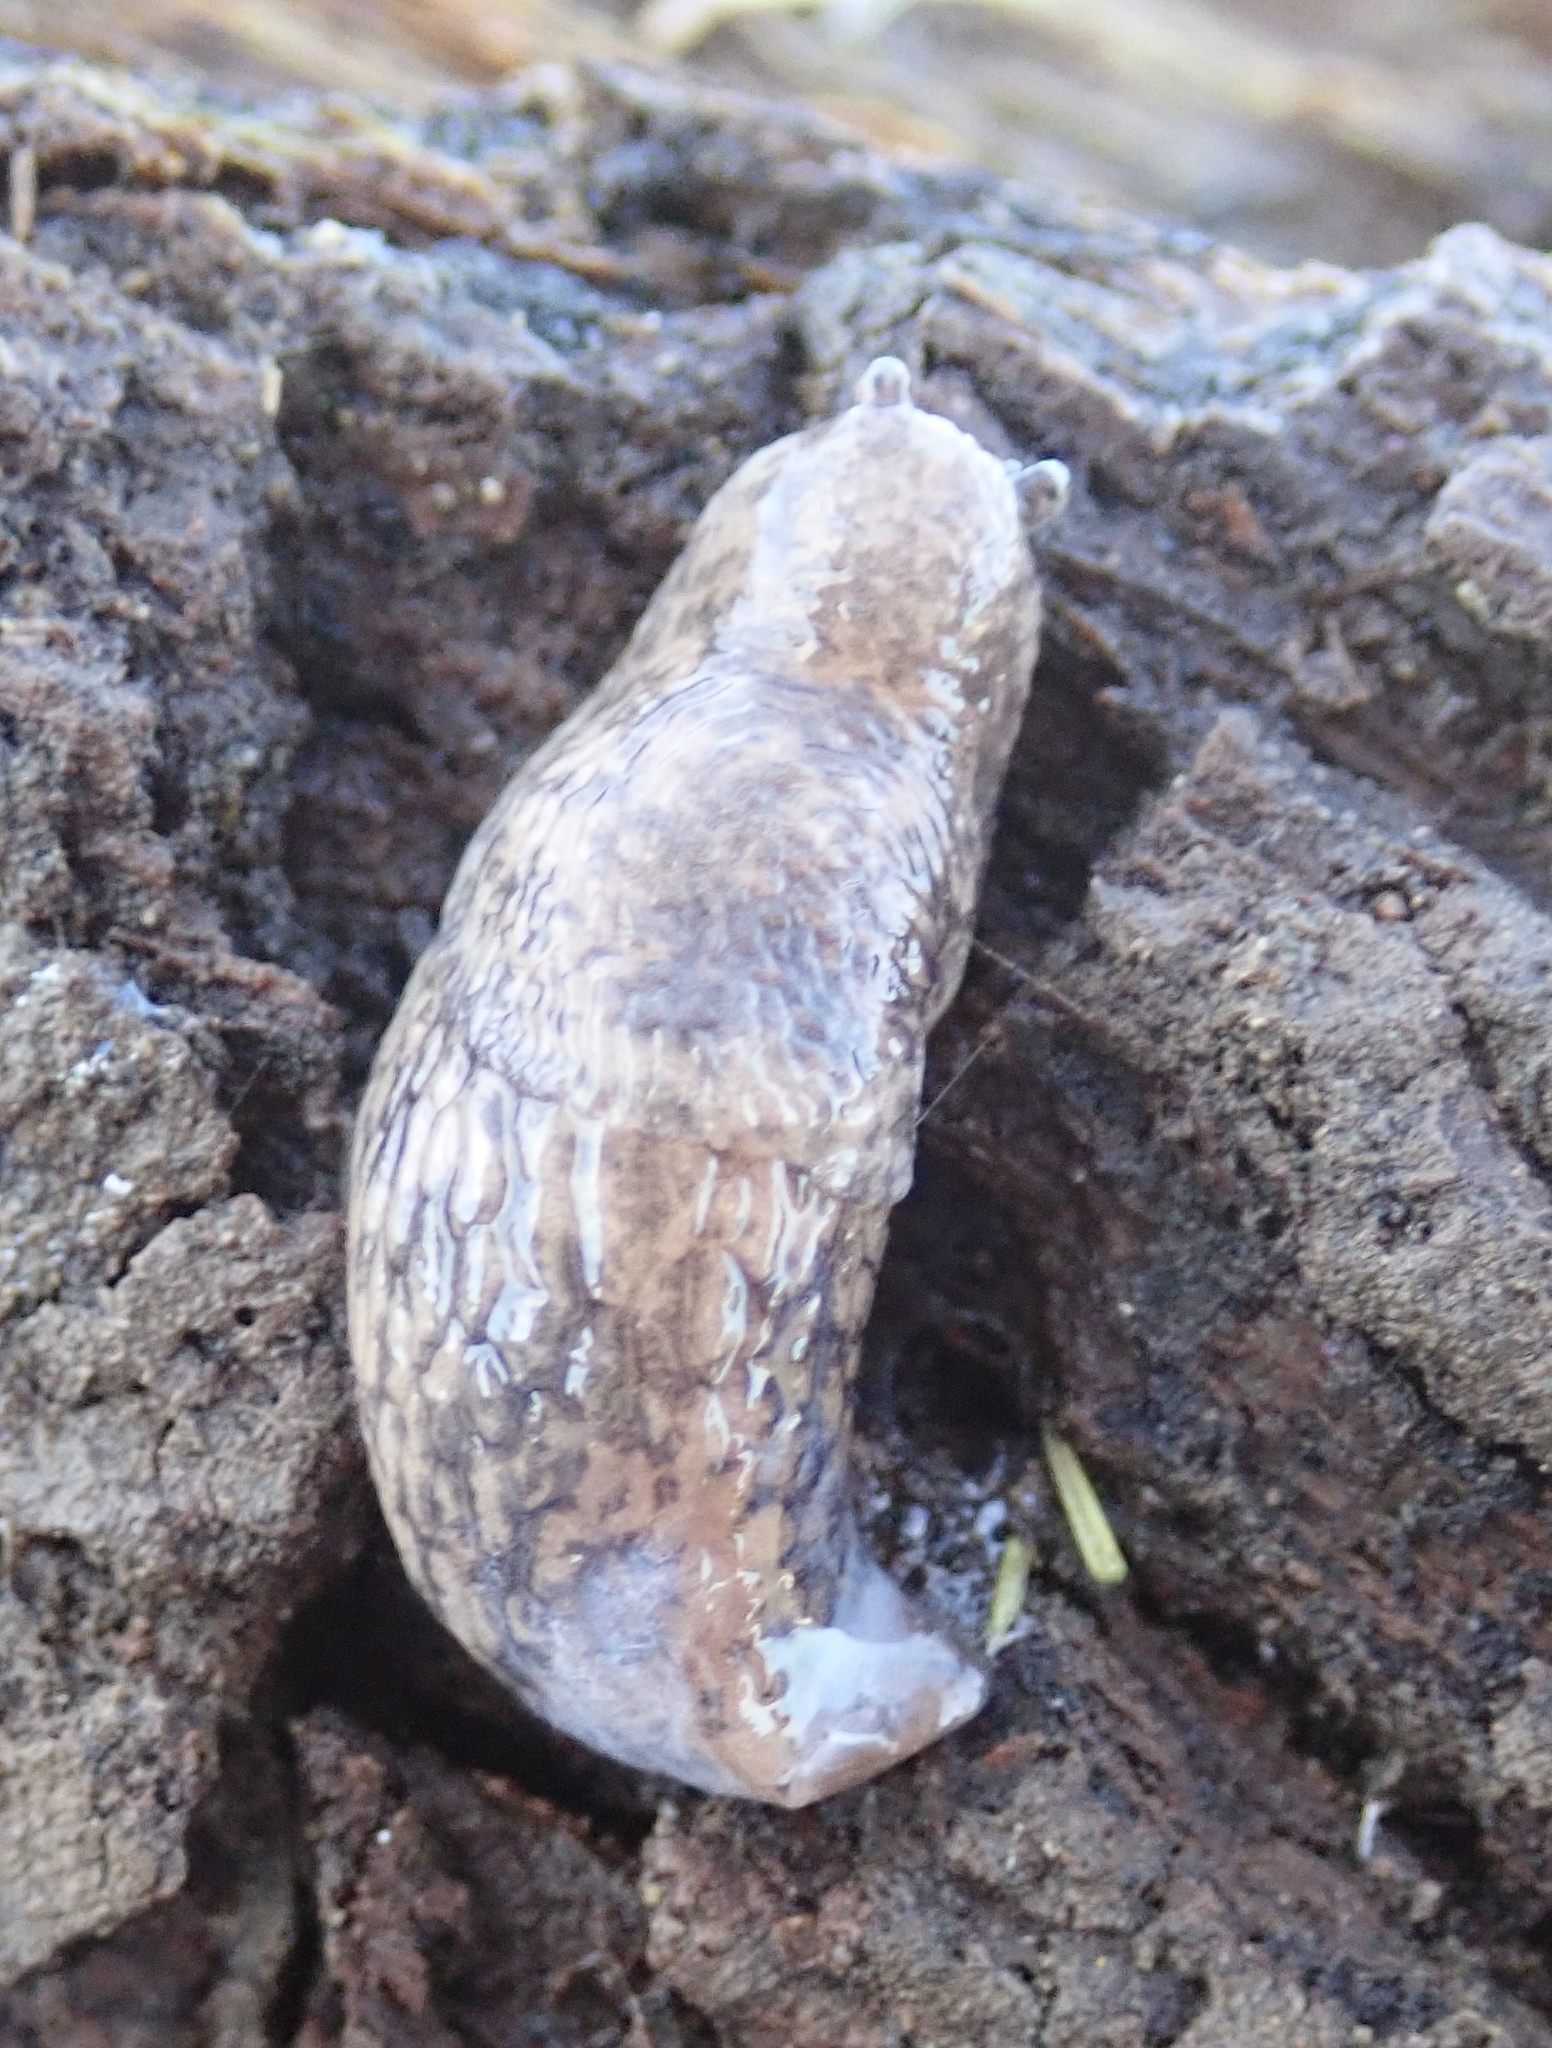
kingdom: Animalia
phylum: Mollusca
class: Gastropoda
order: Stylommatophora
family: Agriolimacidae
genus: Deroceras
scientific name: Deroceras reticulatum
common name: Gray field slug
